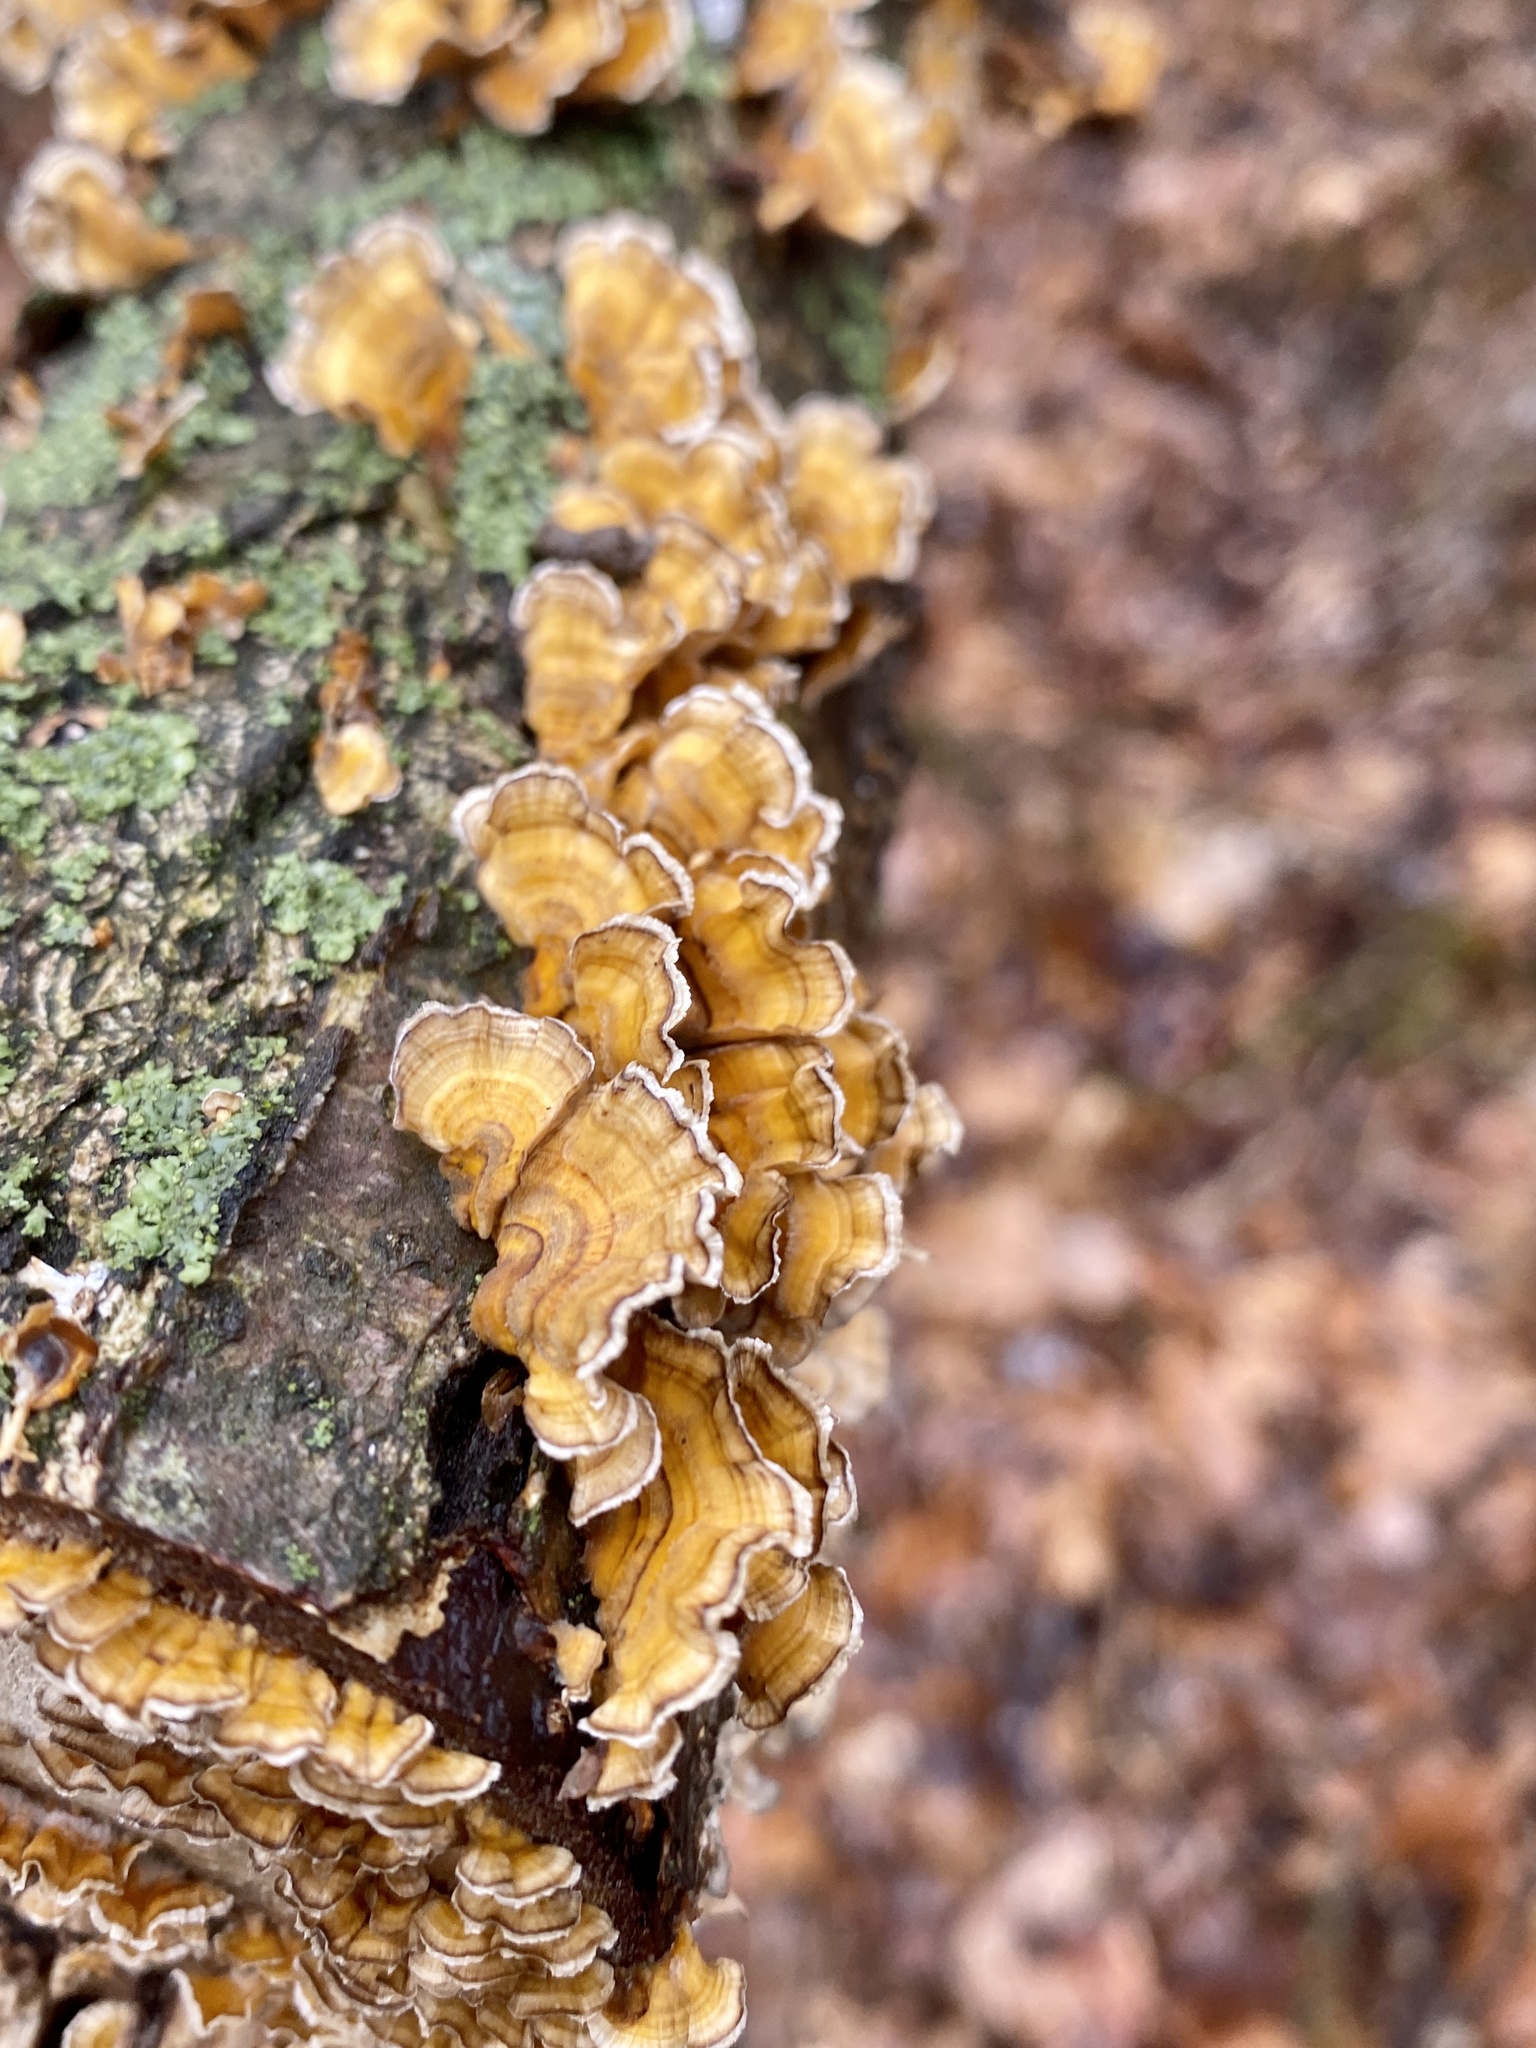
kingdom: Fungi
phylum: Basidiomycota
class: Agaricomycetes
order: Russulales
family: Stereaceae
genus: Stereum
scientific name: Stereum complicatum
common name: Crowded parchment
